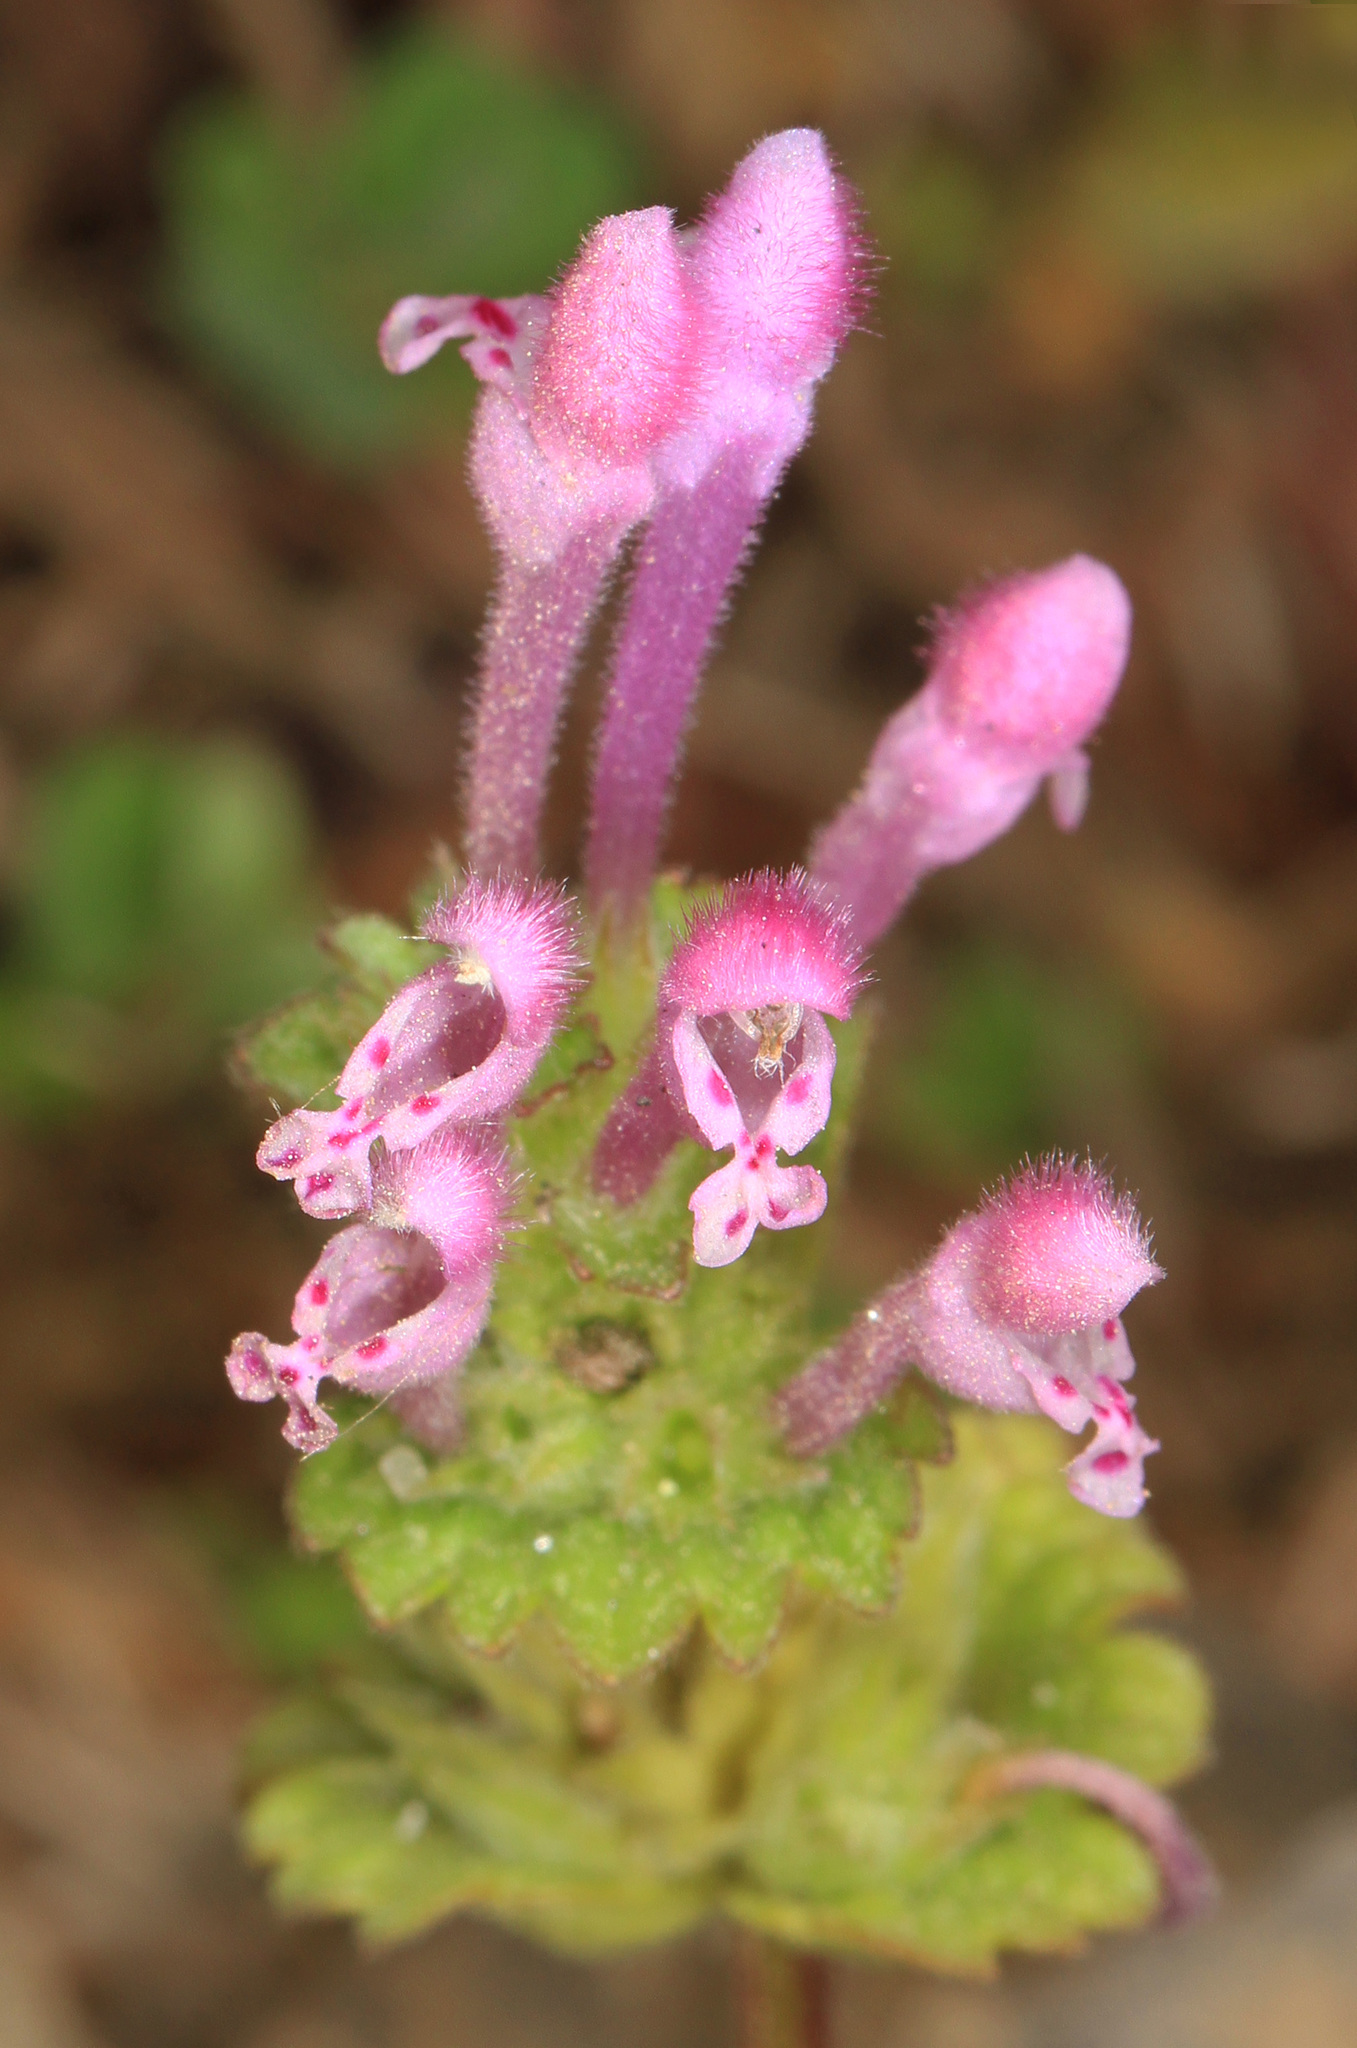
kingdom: Plantae
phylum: Tracheophyta
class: Magnoliopsida
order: Lamiales
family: Lamiaceae
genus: Lamium
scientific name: Lamium amplexicaule
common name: Henbit dead-nettle
